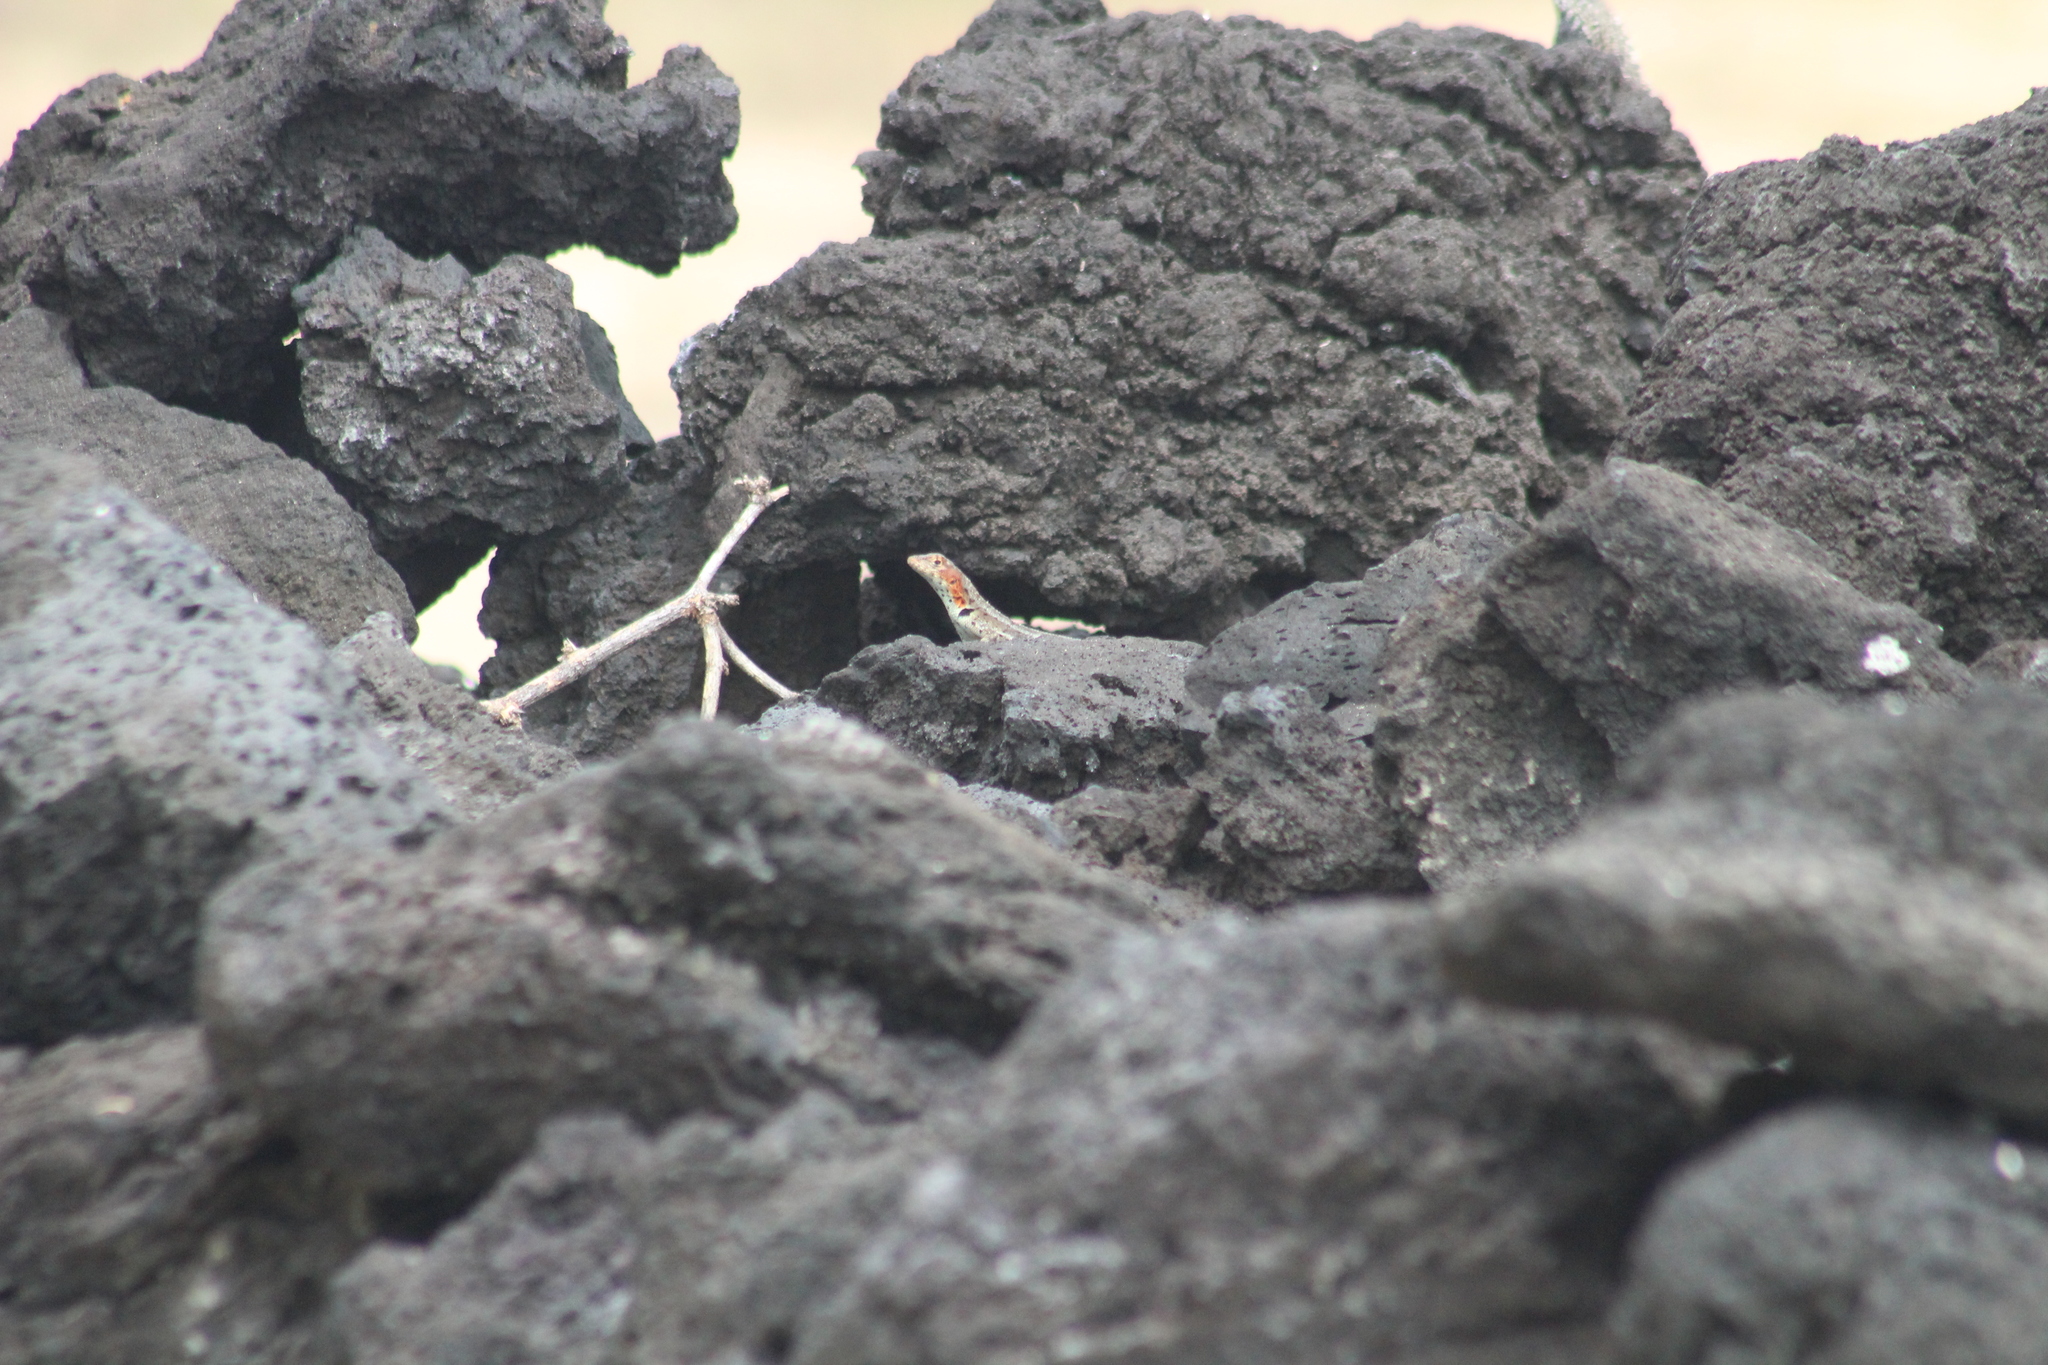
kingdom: Animalia
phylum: Chordata
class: Squamata
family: Tropiduridae
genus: Microlophus
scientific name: Microlophus albemarlensis
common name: Galapagos lava lizard
